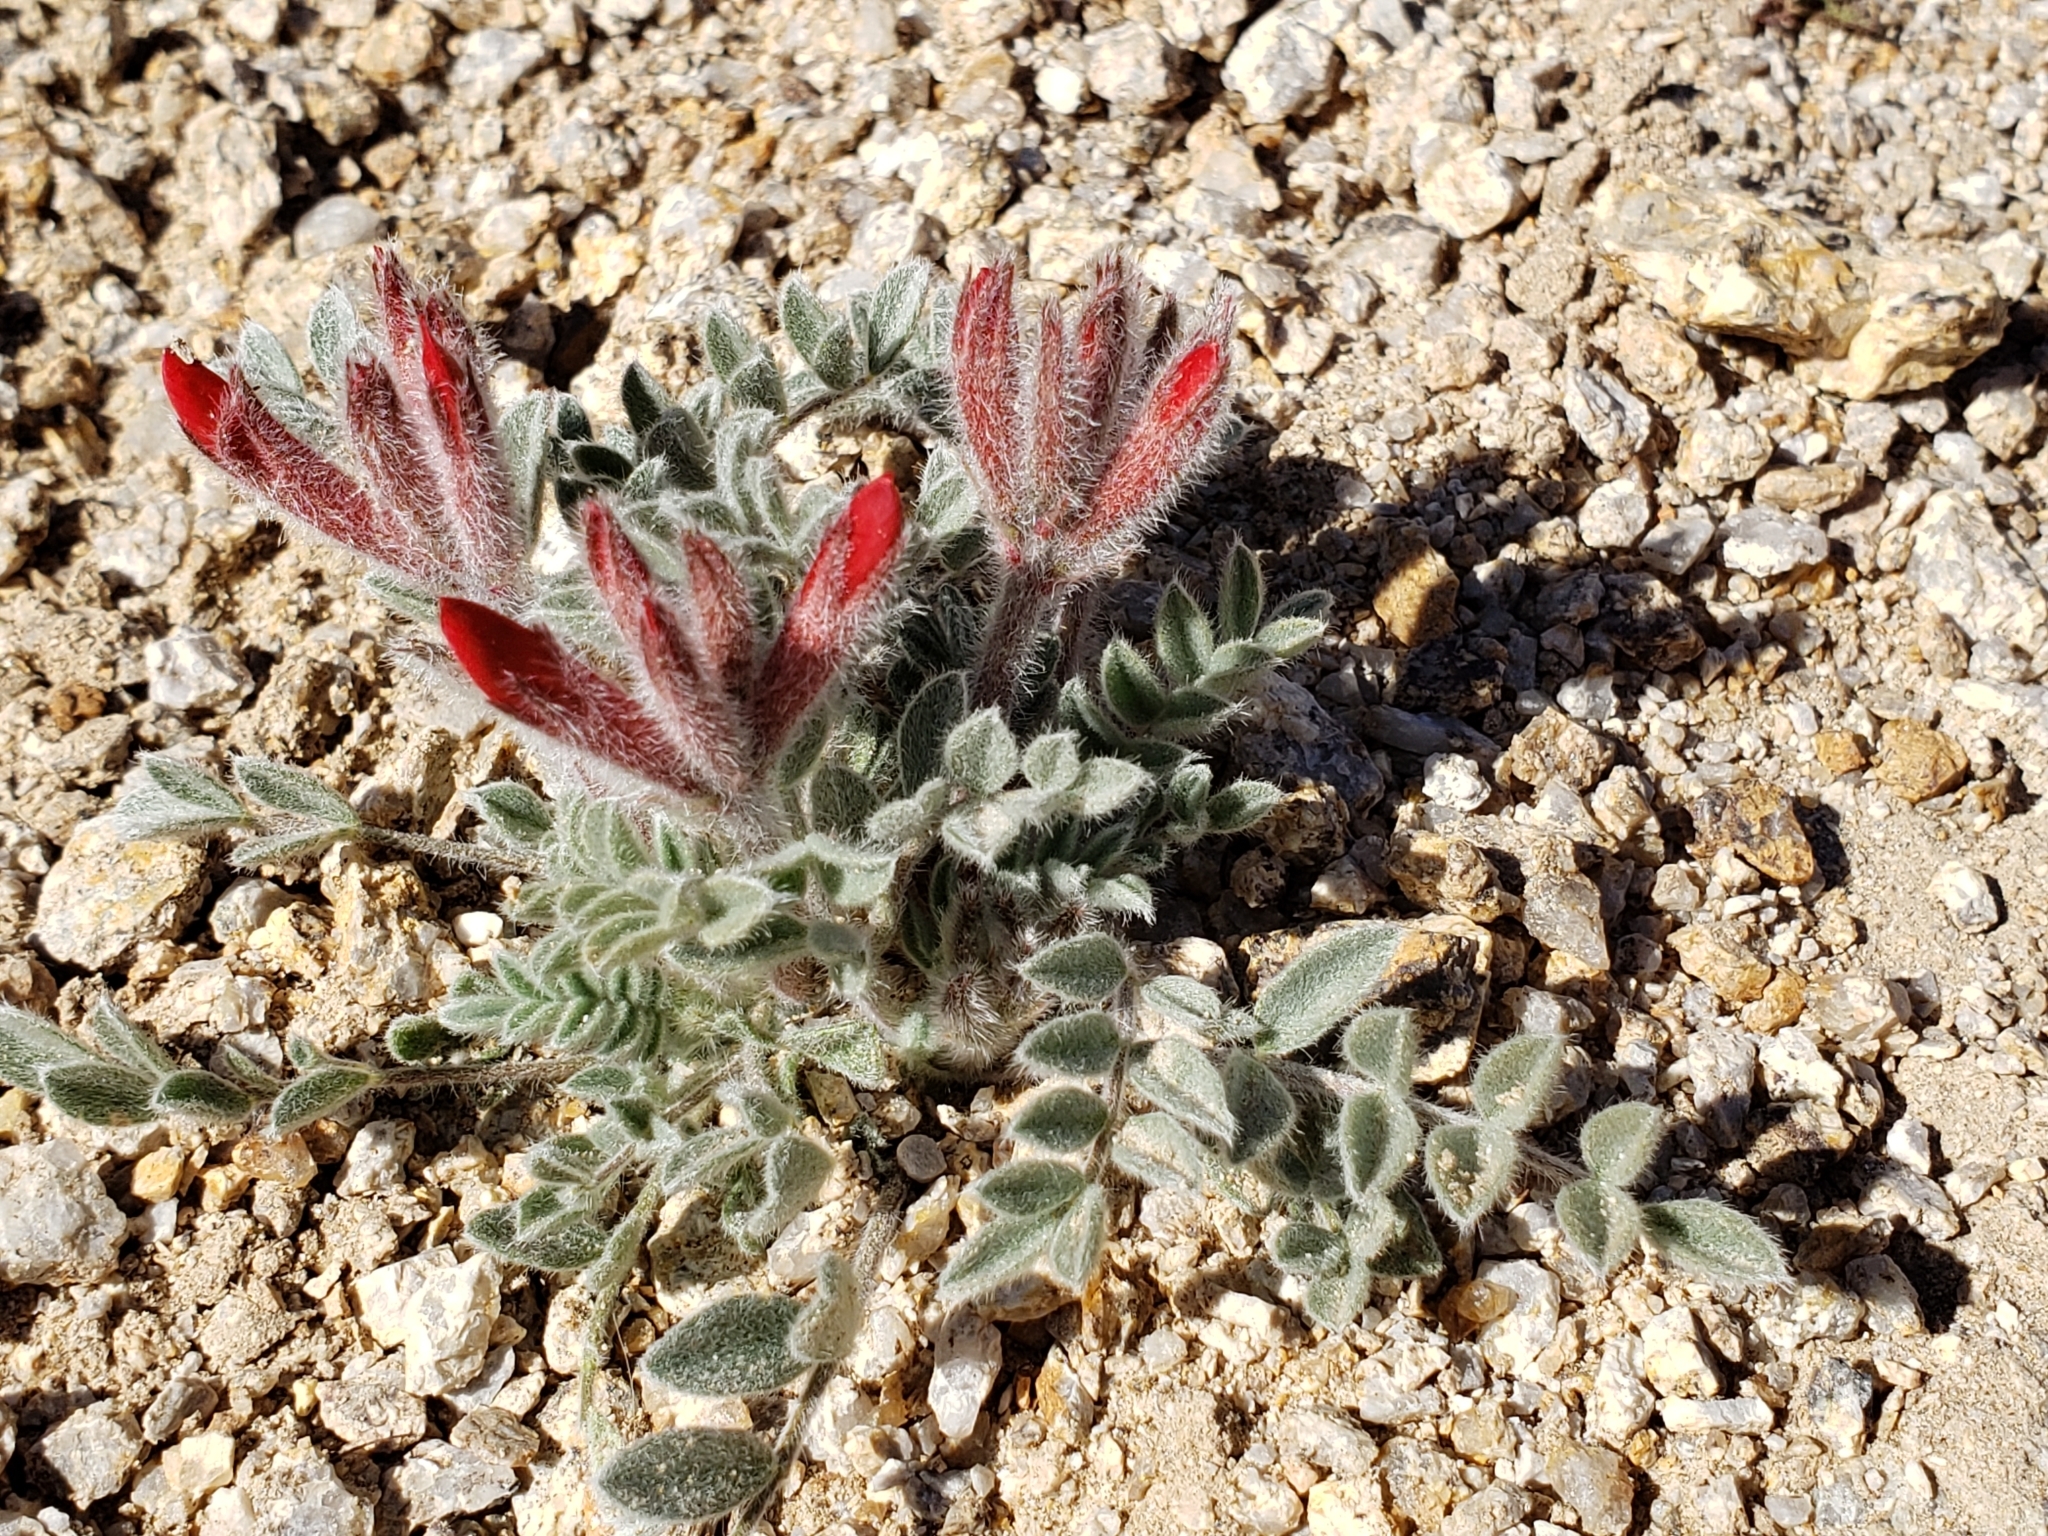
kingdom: Plantae
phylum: Tracheophyta
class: Magnoliopsida
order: Fabales
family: Fabaceae
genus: Astragalus
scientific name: Astragalus coccineus
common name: Scarlet milk-vetch
